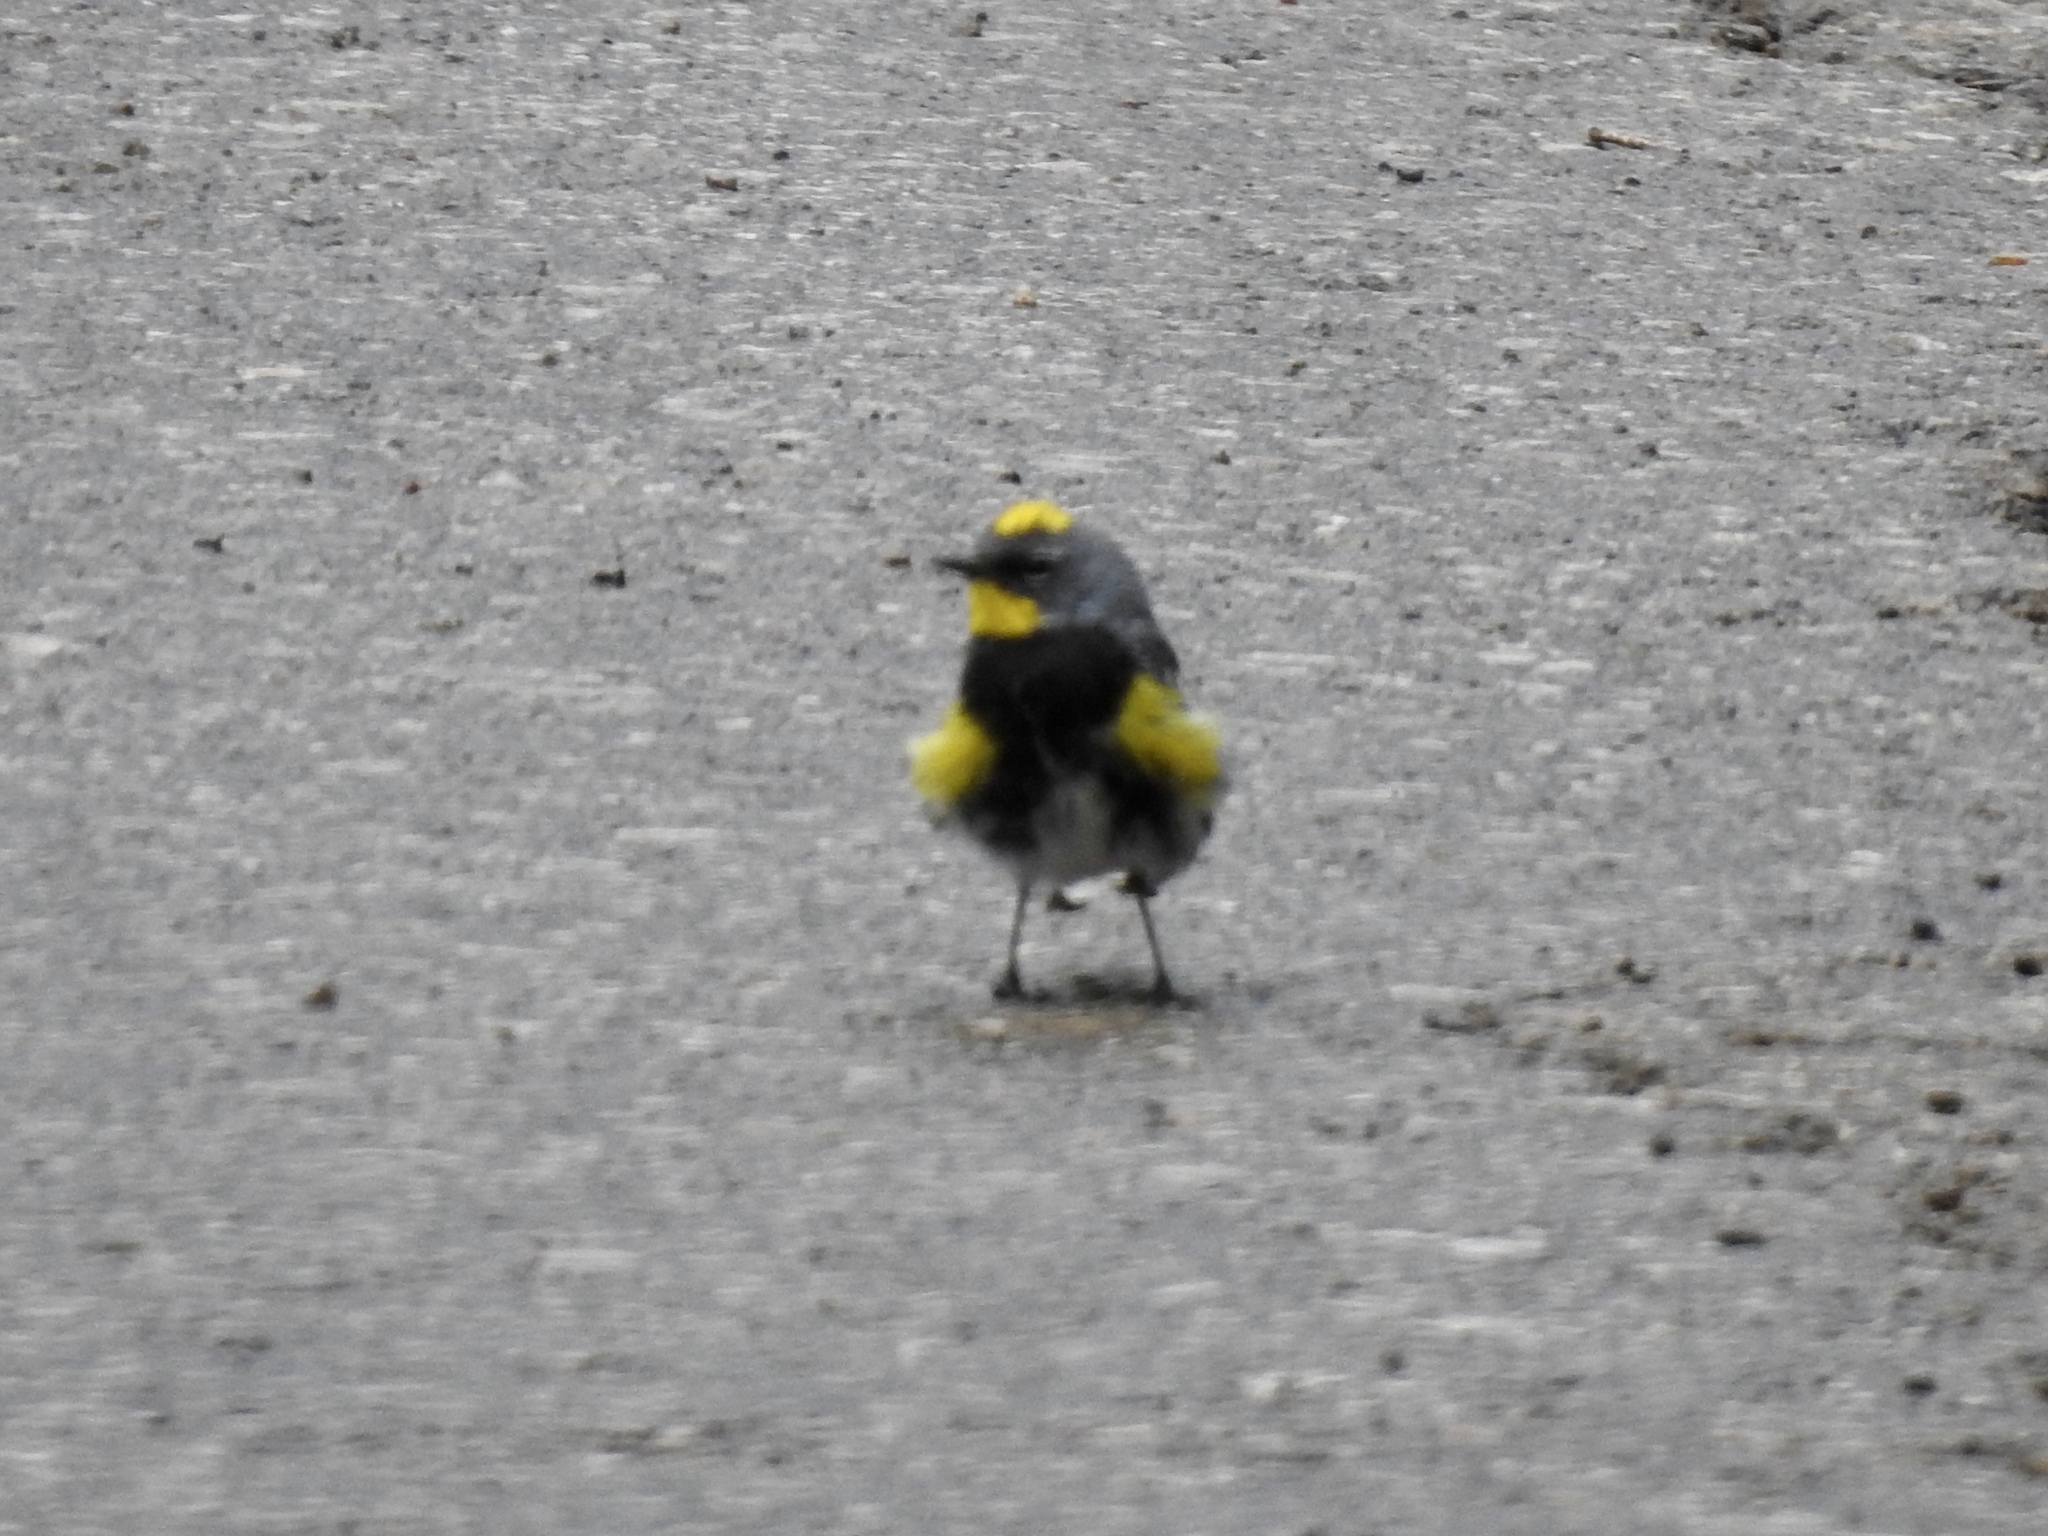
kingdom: Animalia
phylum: Chordata
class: Aves
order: Passeriformes
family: Parulidae
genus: Setophaga
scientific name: Setophaga auduboni
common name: Audubon's warbler
